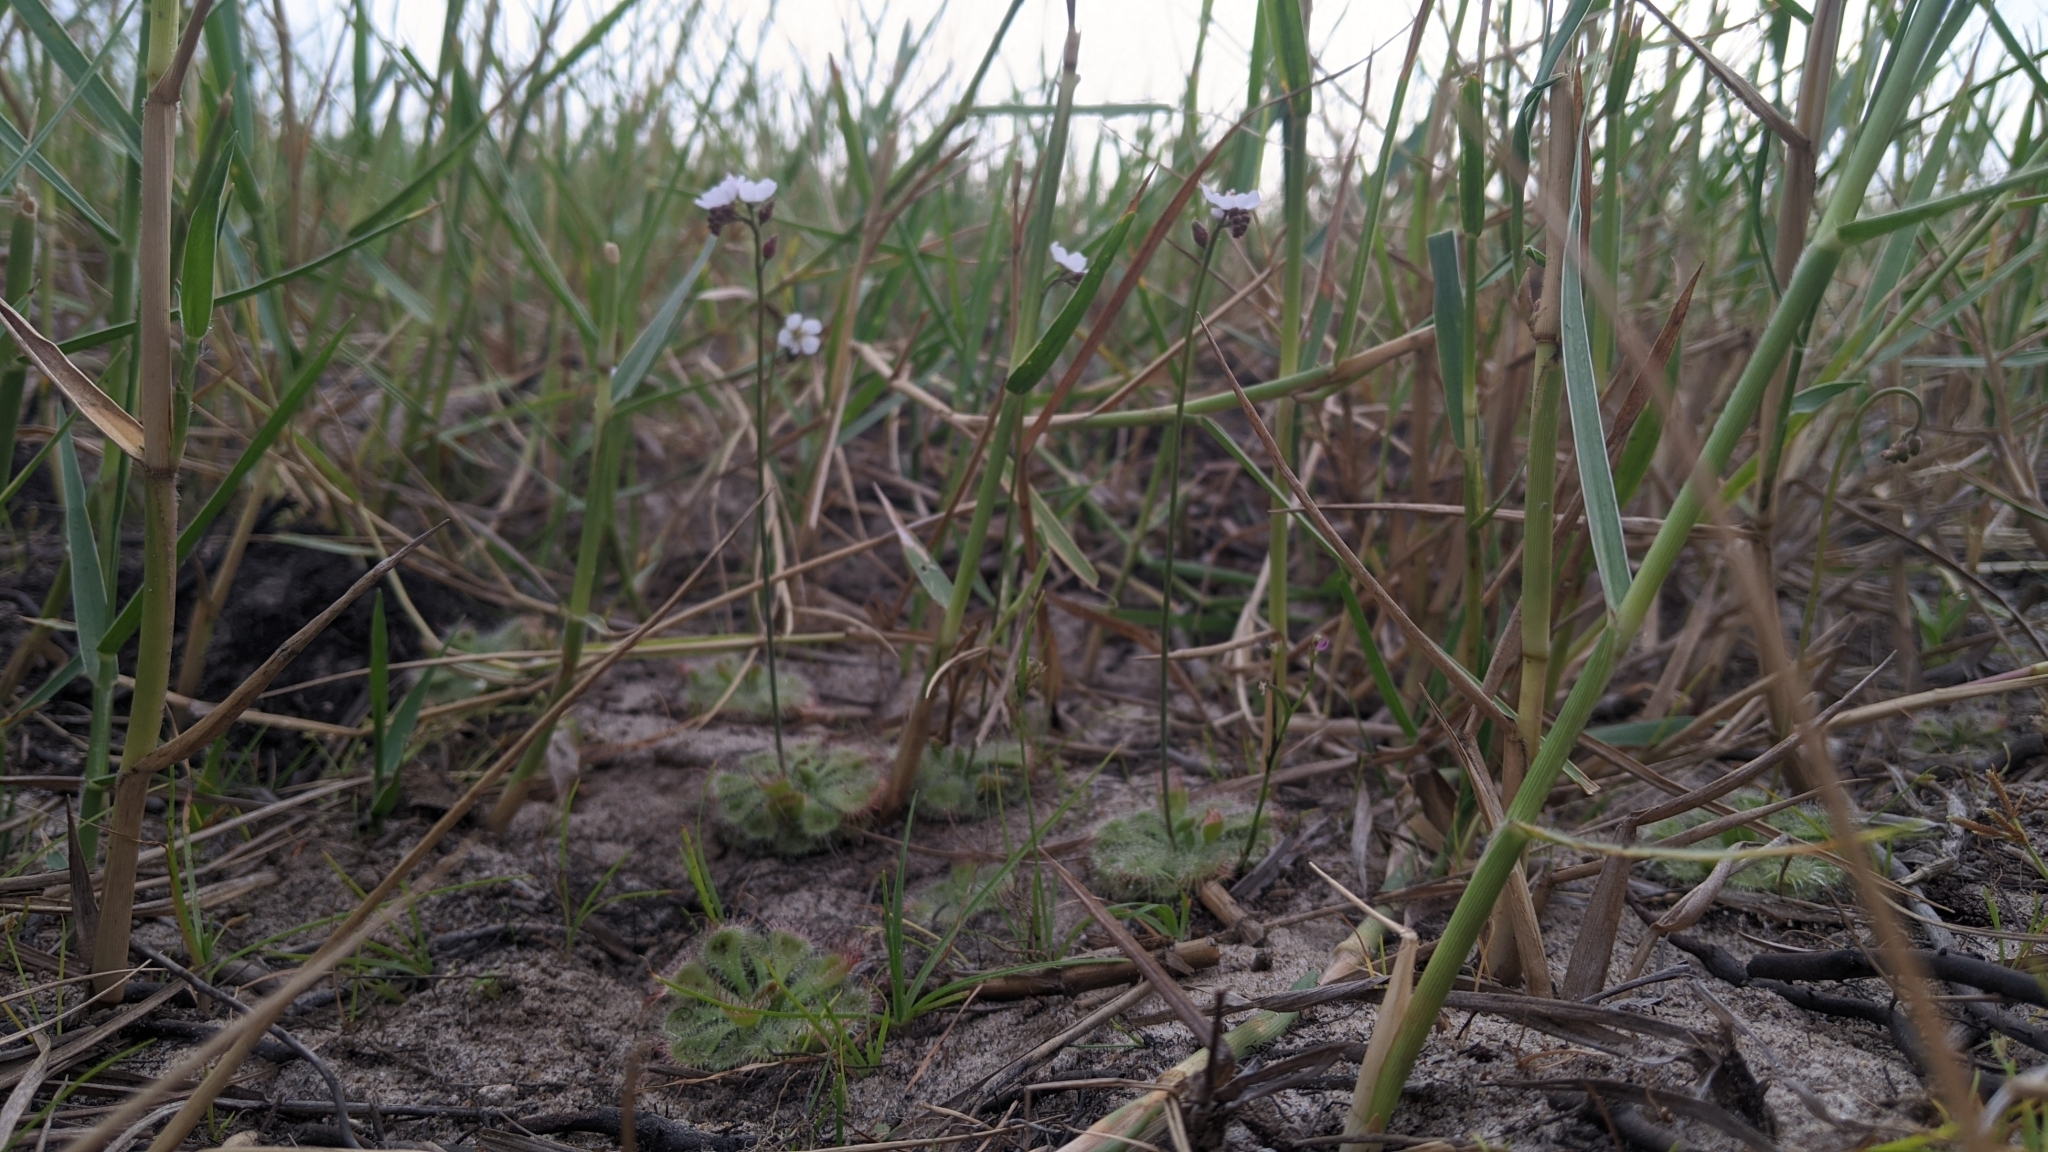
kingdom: Plantae
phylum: Tracheophyta
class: Magnoliopsida
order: Caryophyllales
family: Droseraceae
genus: Drosera
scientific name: Drosera spatulata
